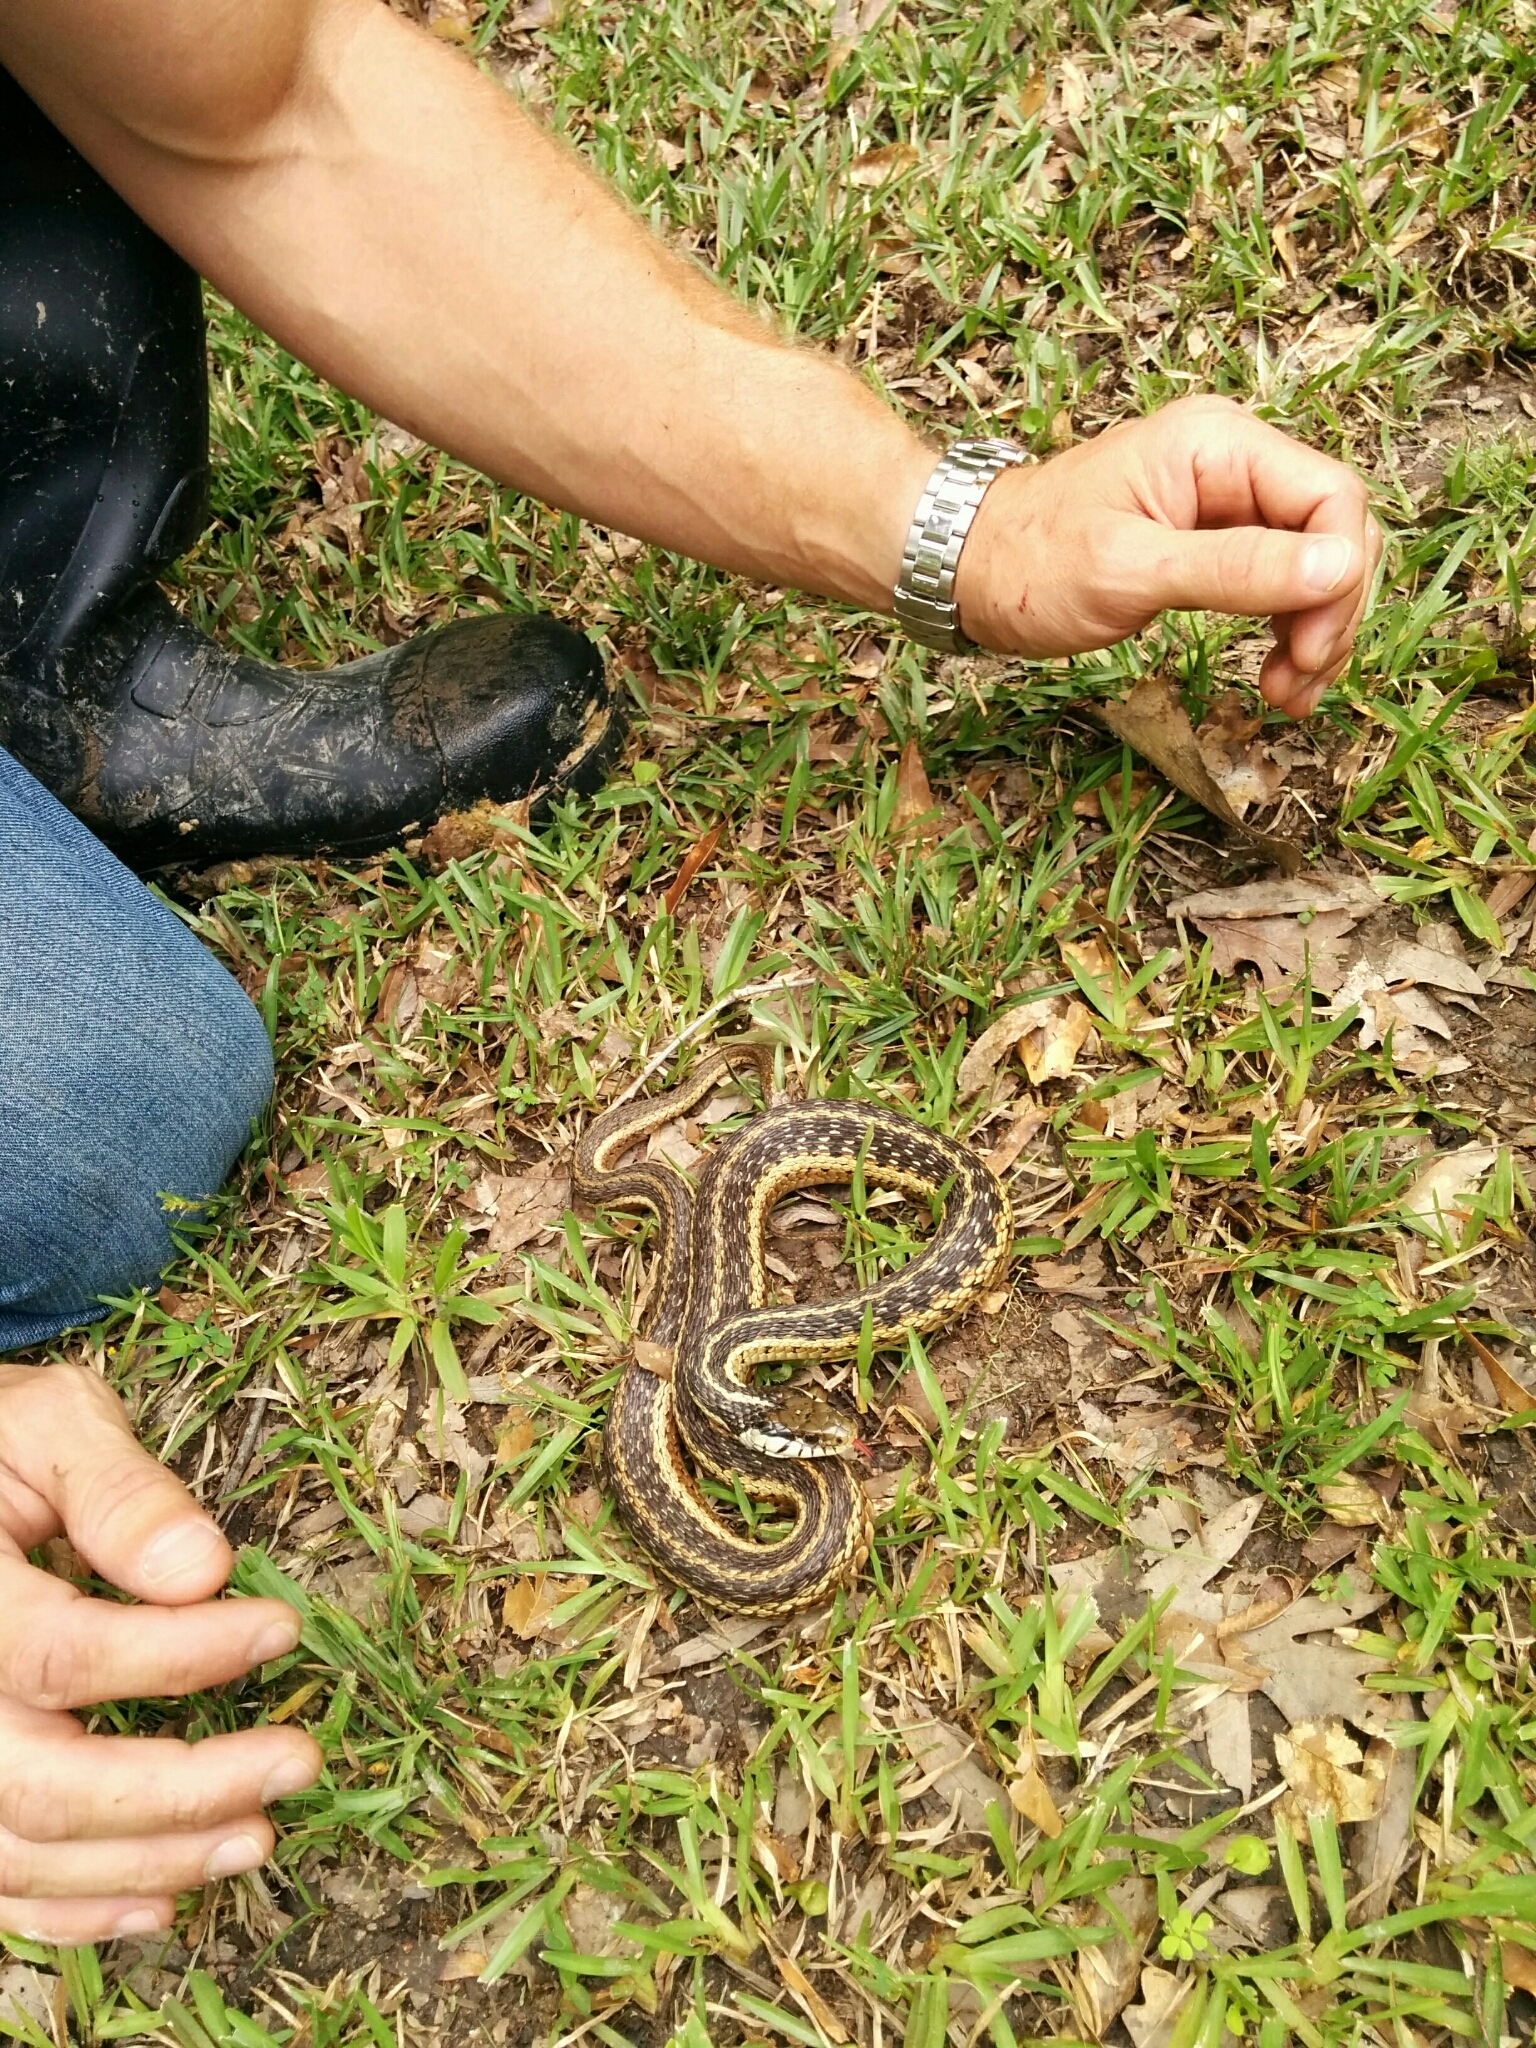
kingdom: Animalia
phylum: Chordata
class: Squamata
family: Colubridae
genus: Thamnophis
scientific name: Thamnophis sirtalis
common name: Common garter snake
